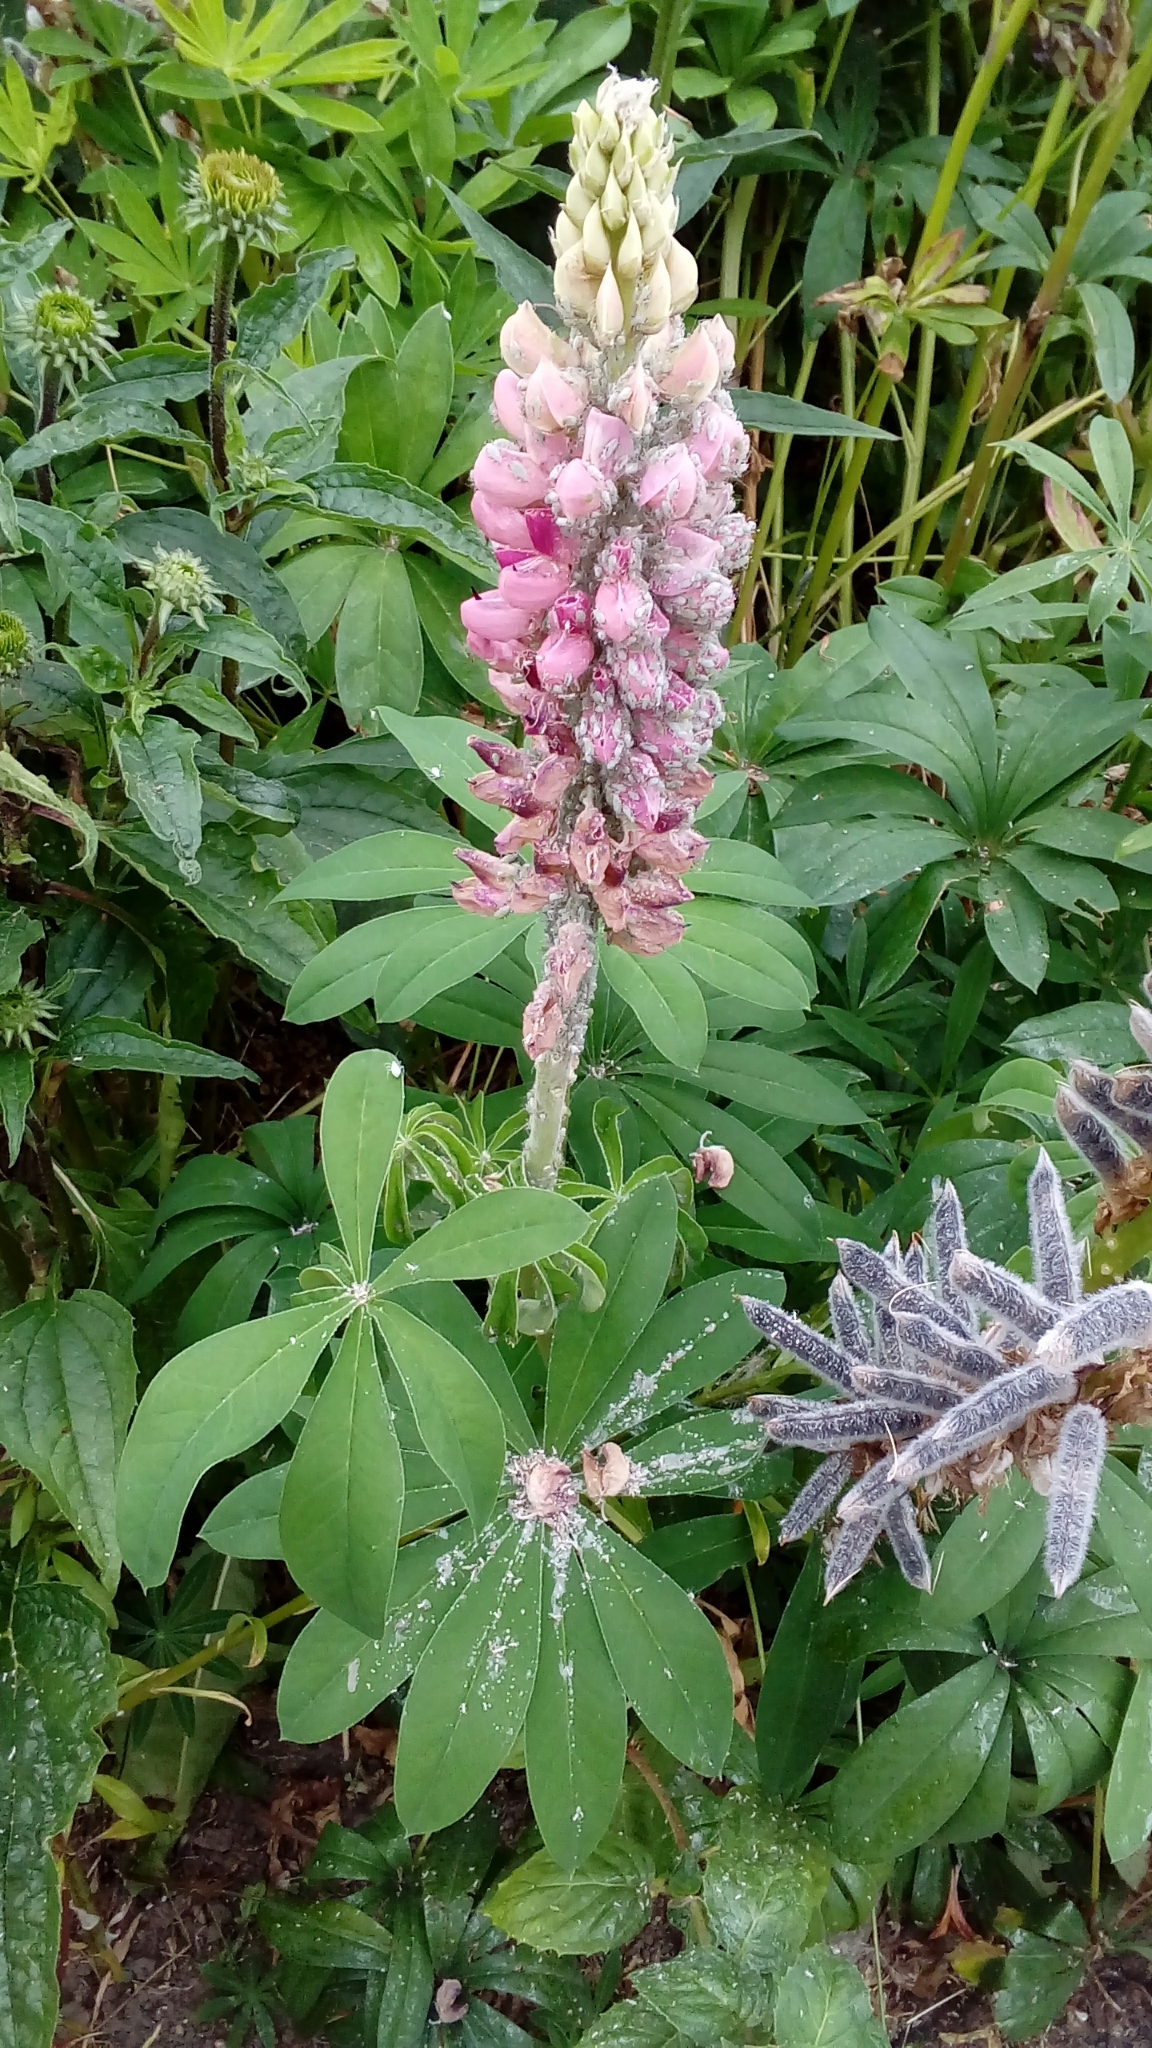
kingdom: Animalia
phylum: Arthropoda
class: Insecta
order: Hemiptera
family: Aphididae
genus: Macrosiphum
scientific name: Macrosiphum albifrons
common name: Lupine aphid
